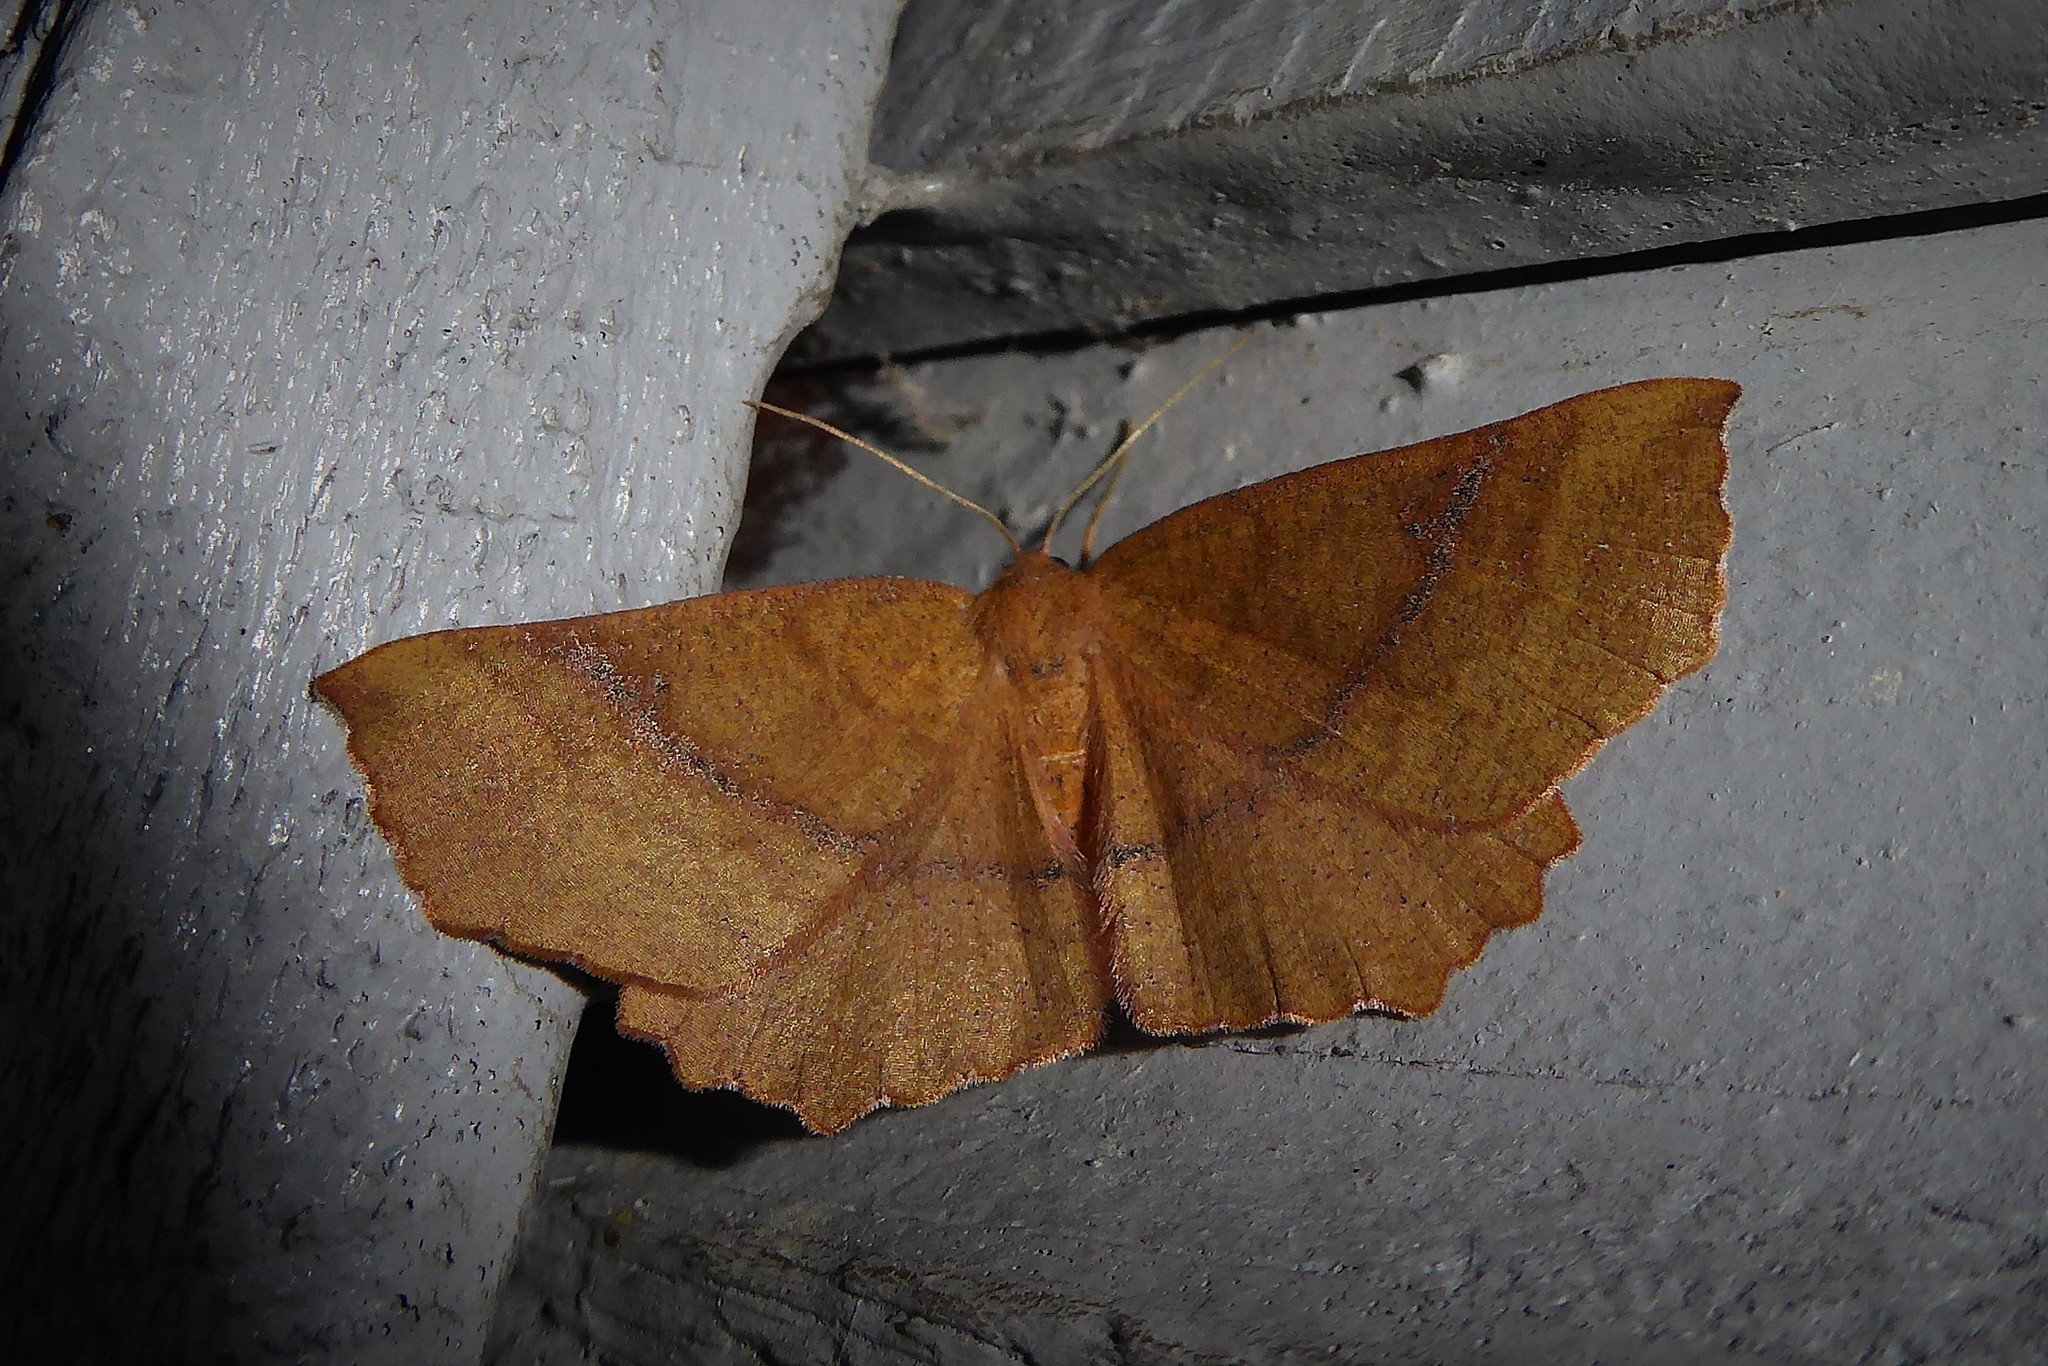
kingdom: Animalia
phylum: Arthropoda
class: Insecta
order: Lepidoptera
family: Geometridae
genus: Xyridacma
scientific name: Xyridacma ustaria
